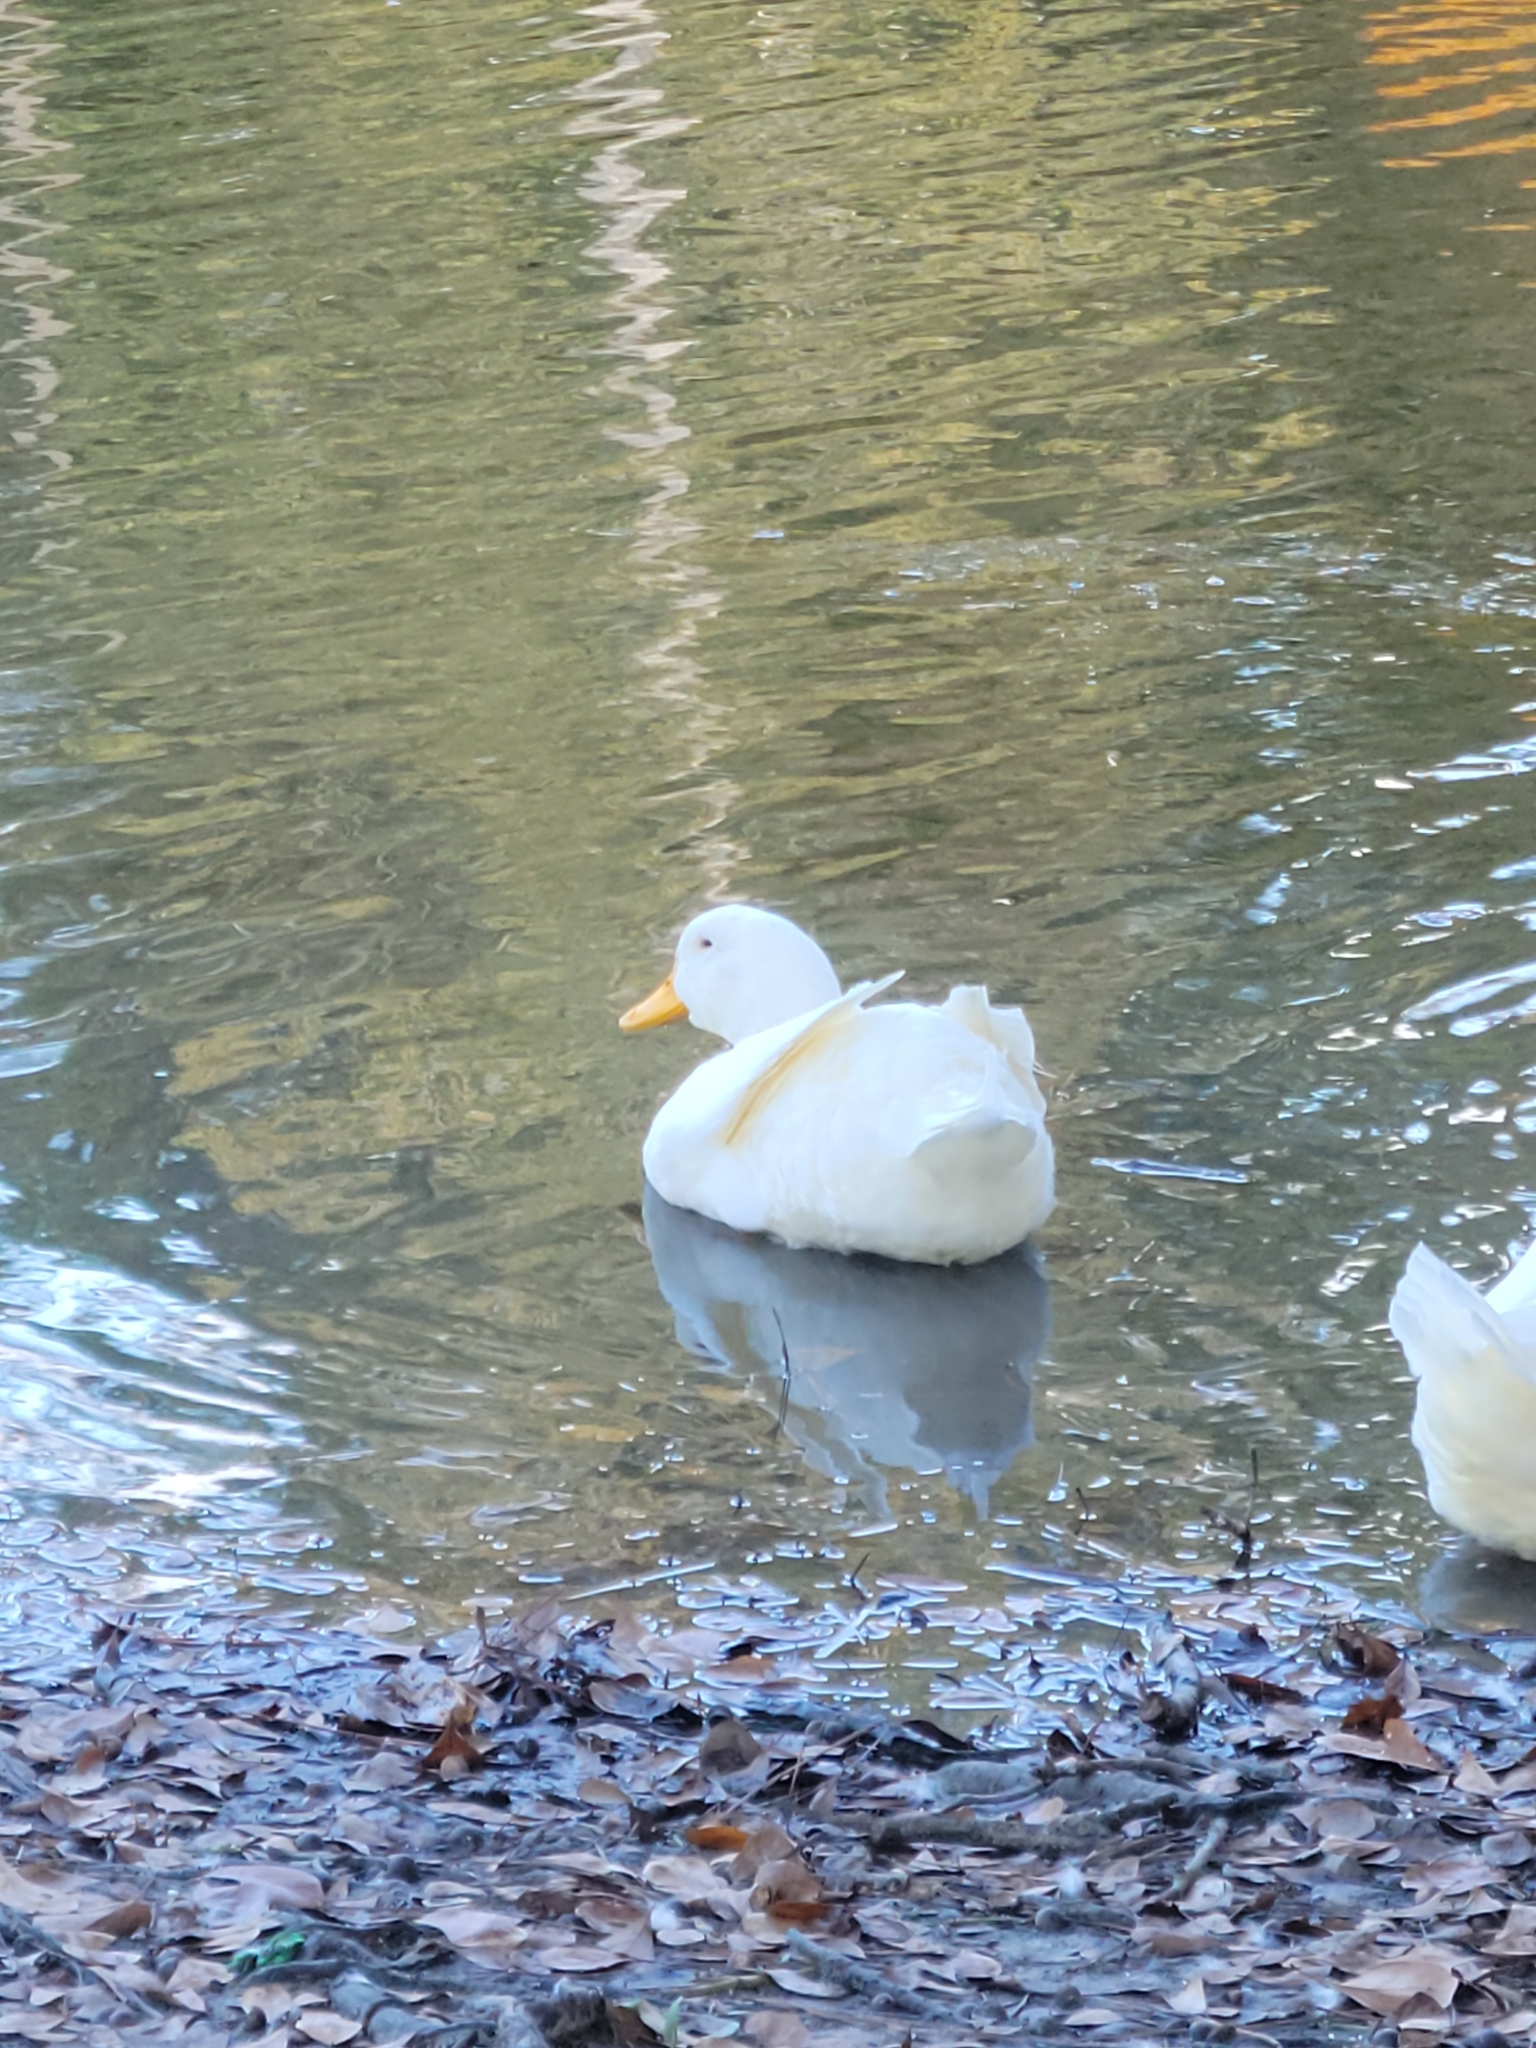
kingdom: Animalia
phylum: Chordata
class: Aves
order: Anseriformes
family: Anatidae
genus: Anas
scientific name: Anas platyrhynchos
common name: Mallard
